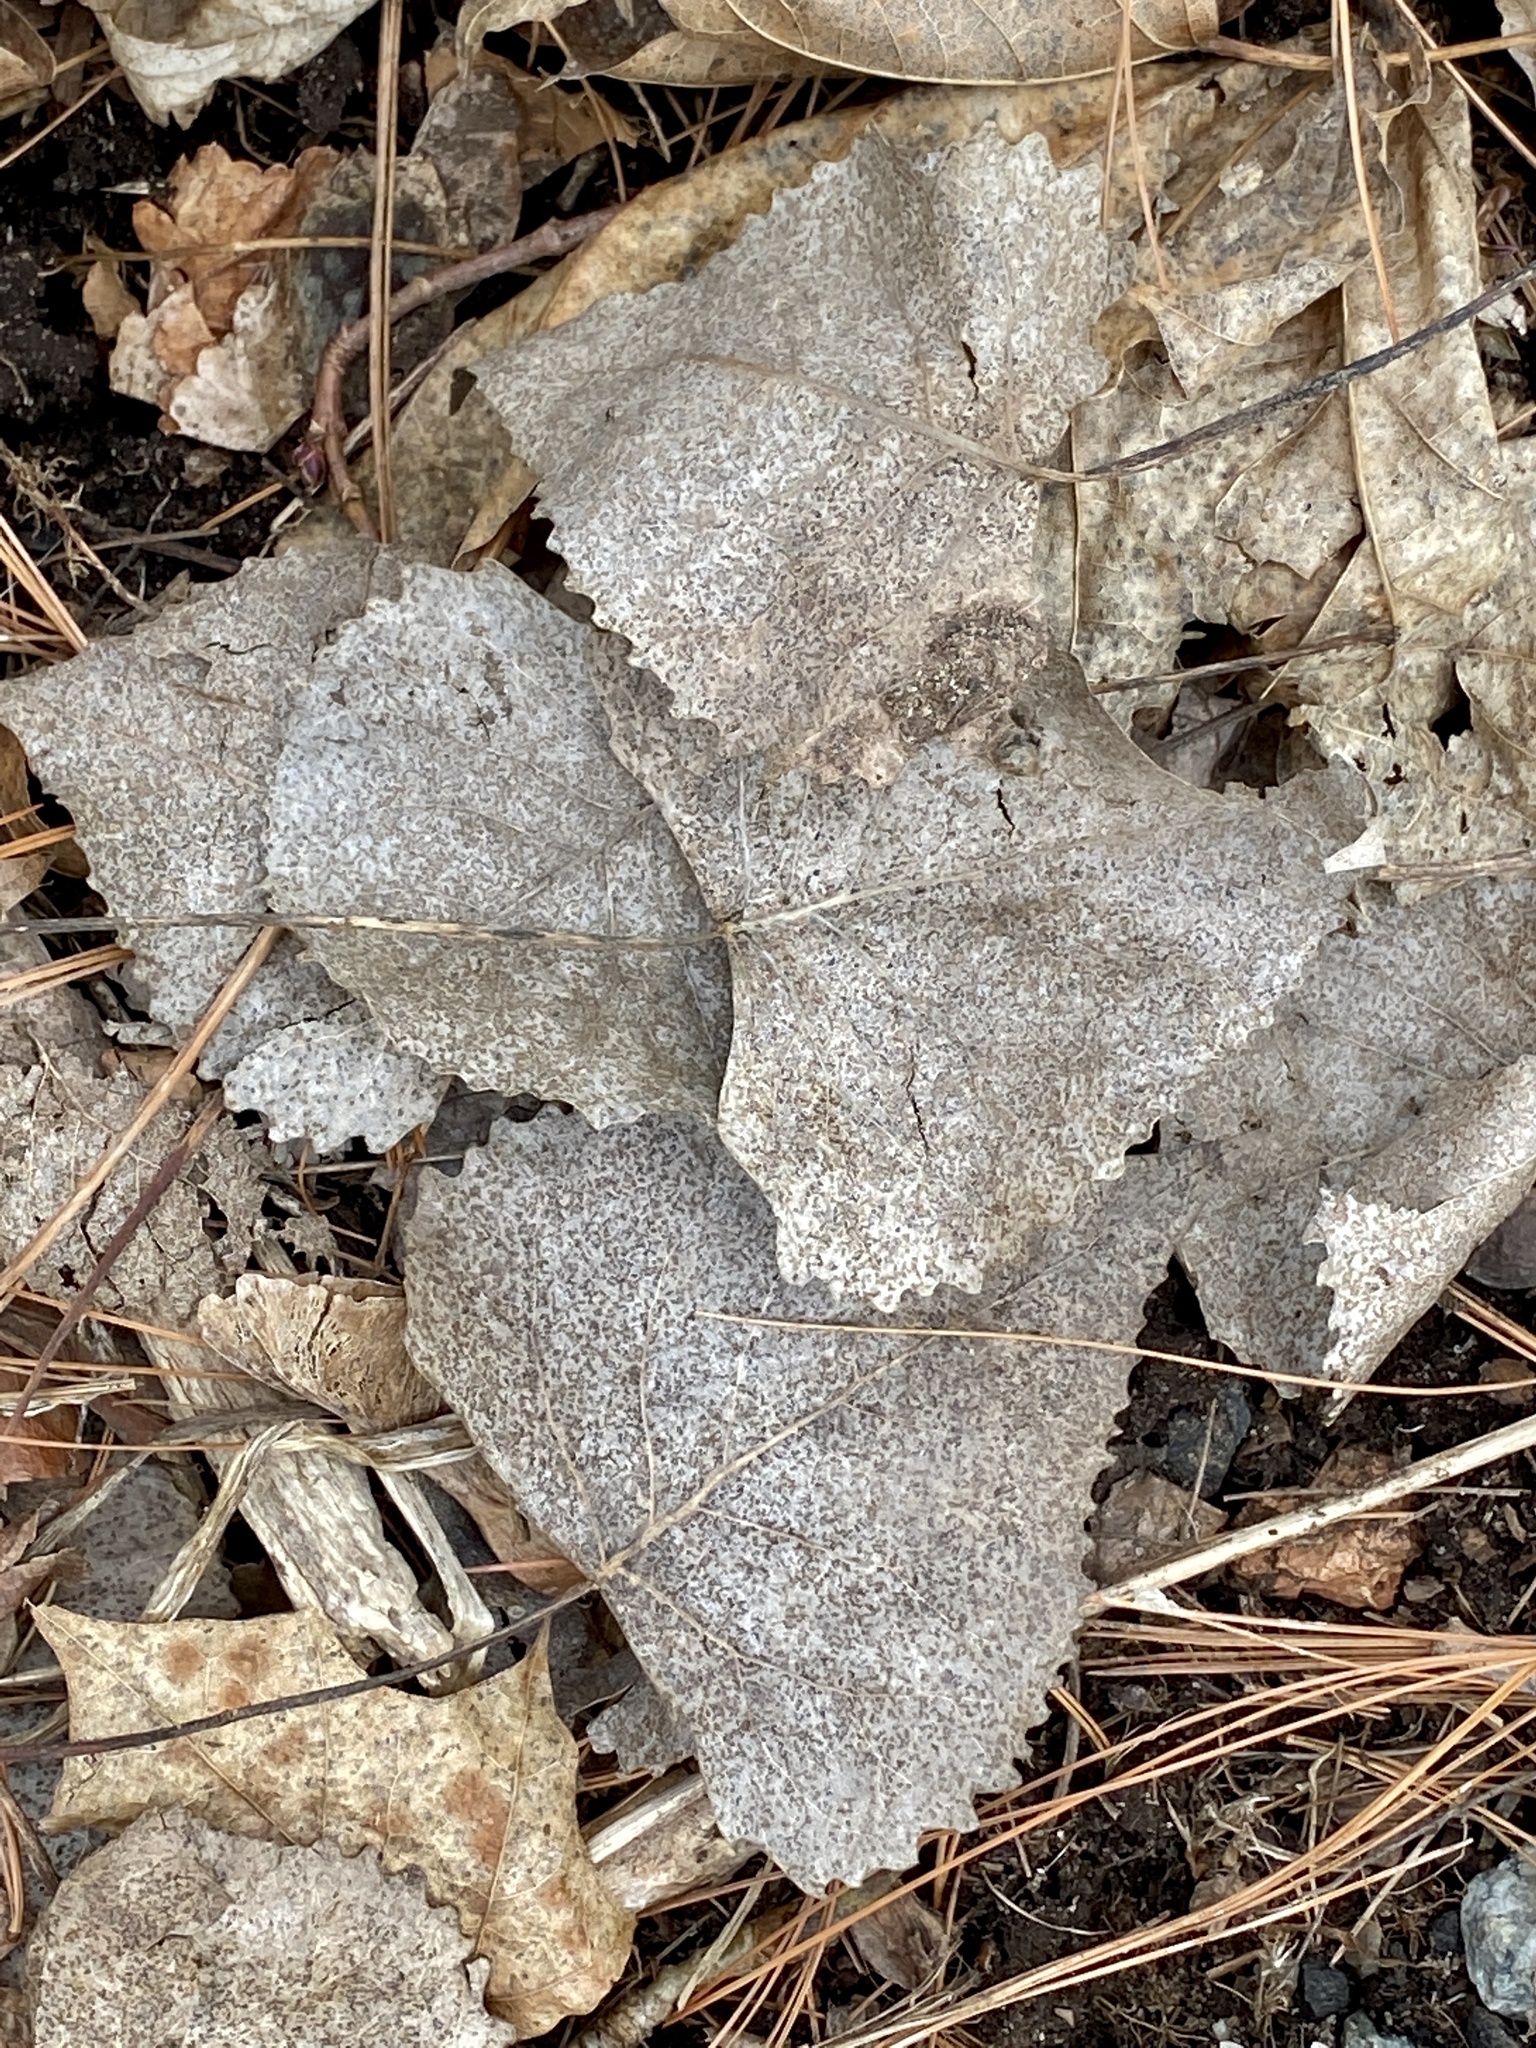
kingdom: Plantae
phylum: Tracheophyta
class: Magnoliopsida
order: Malpighiales
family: Salicaceae
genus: Populus
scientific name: Populus deltoides
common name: Eastern cottonwood
